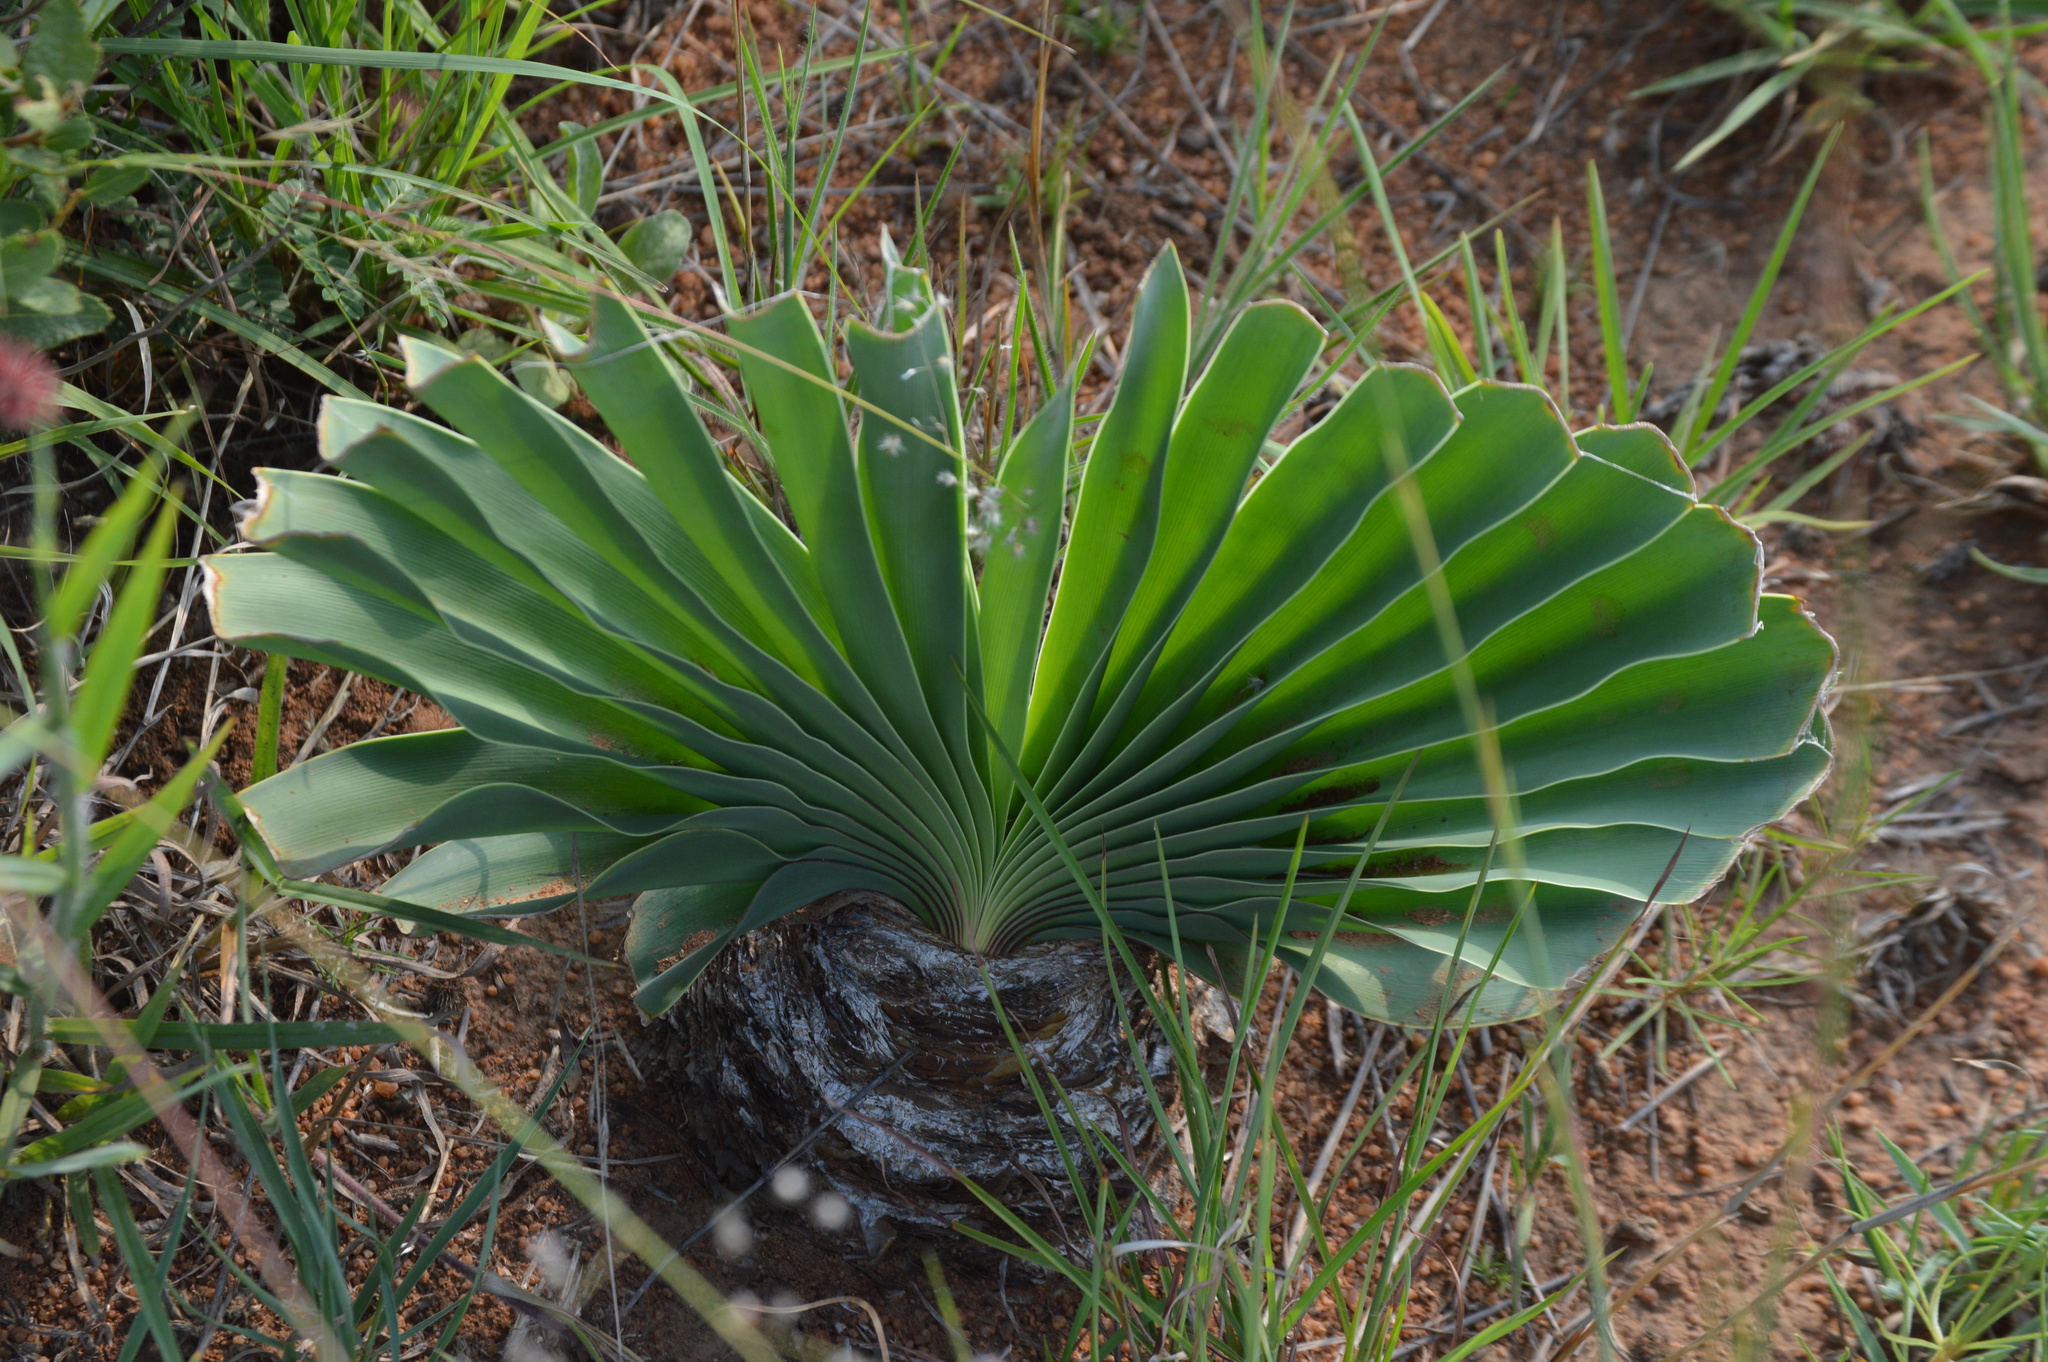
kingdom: Plantae
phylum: Tracheophyta
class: Liliopsida
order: Asparagales
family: Amaryllidaceae
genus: Boophone
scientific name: Boophone disticha
